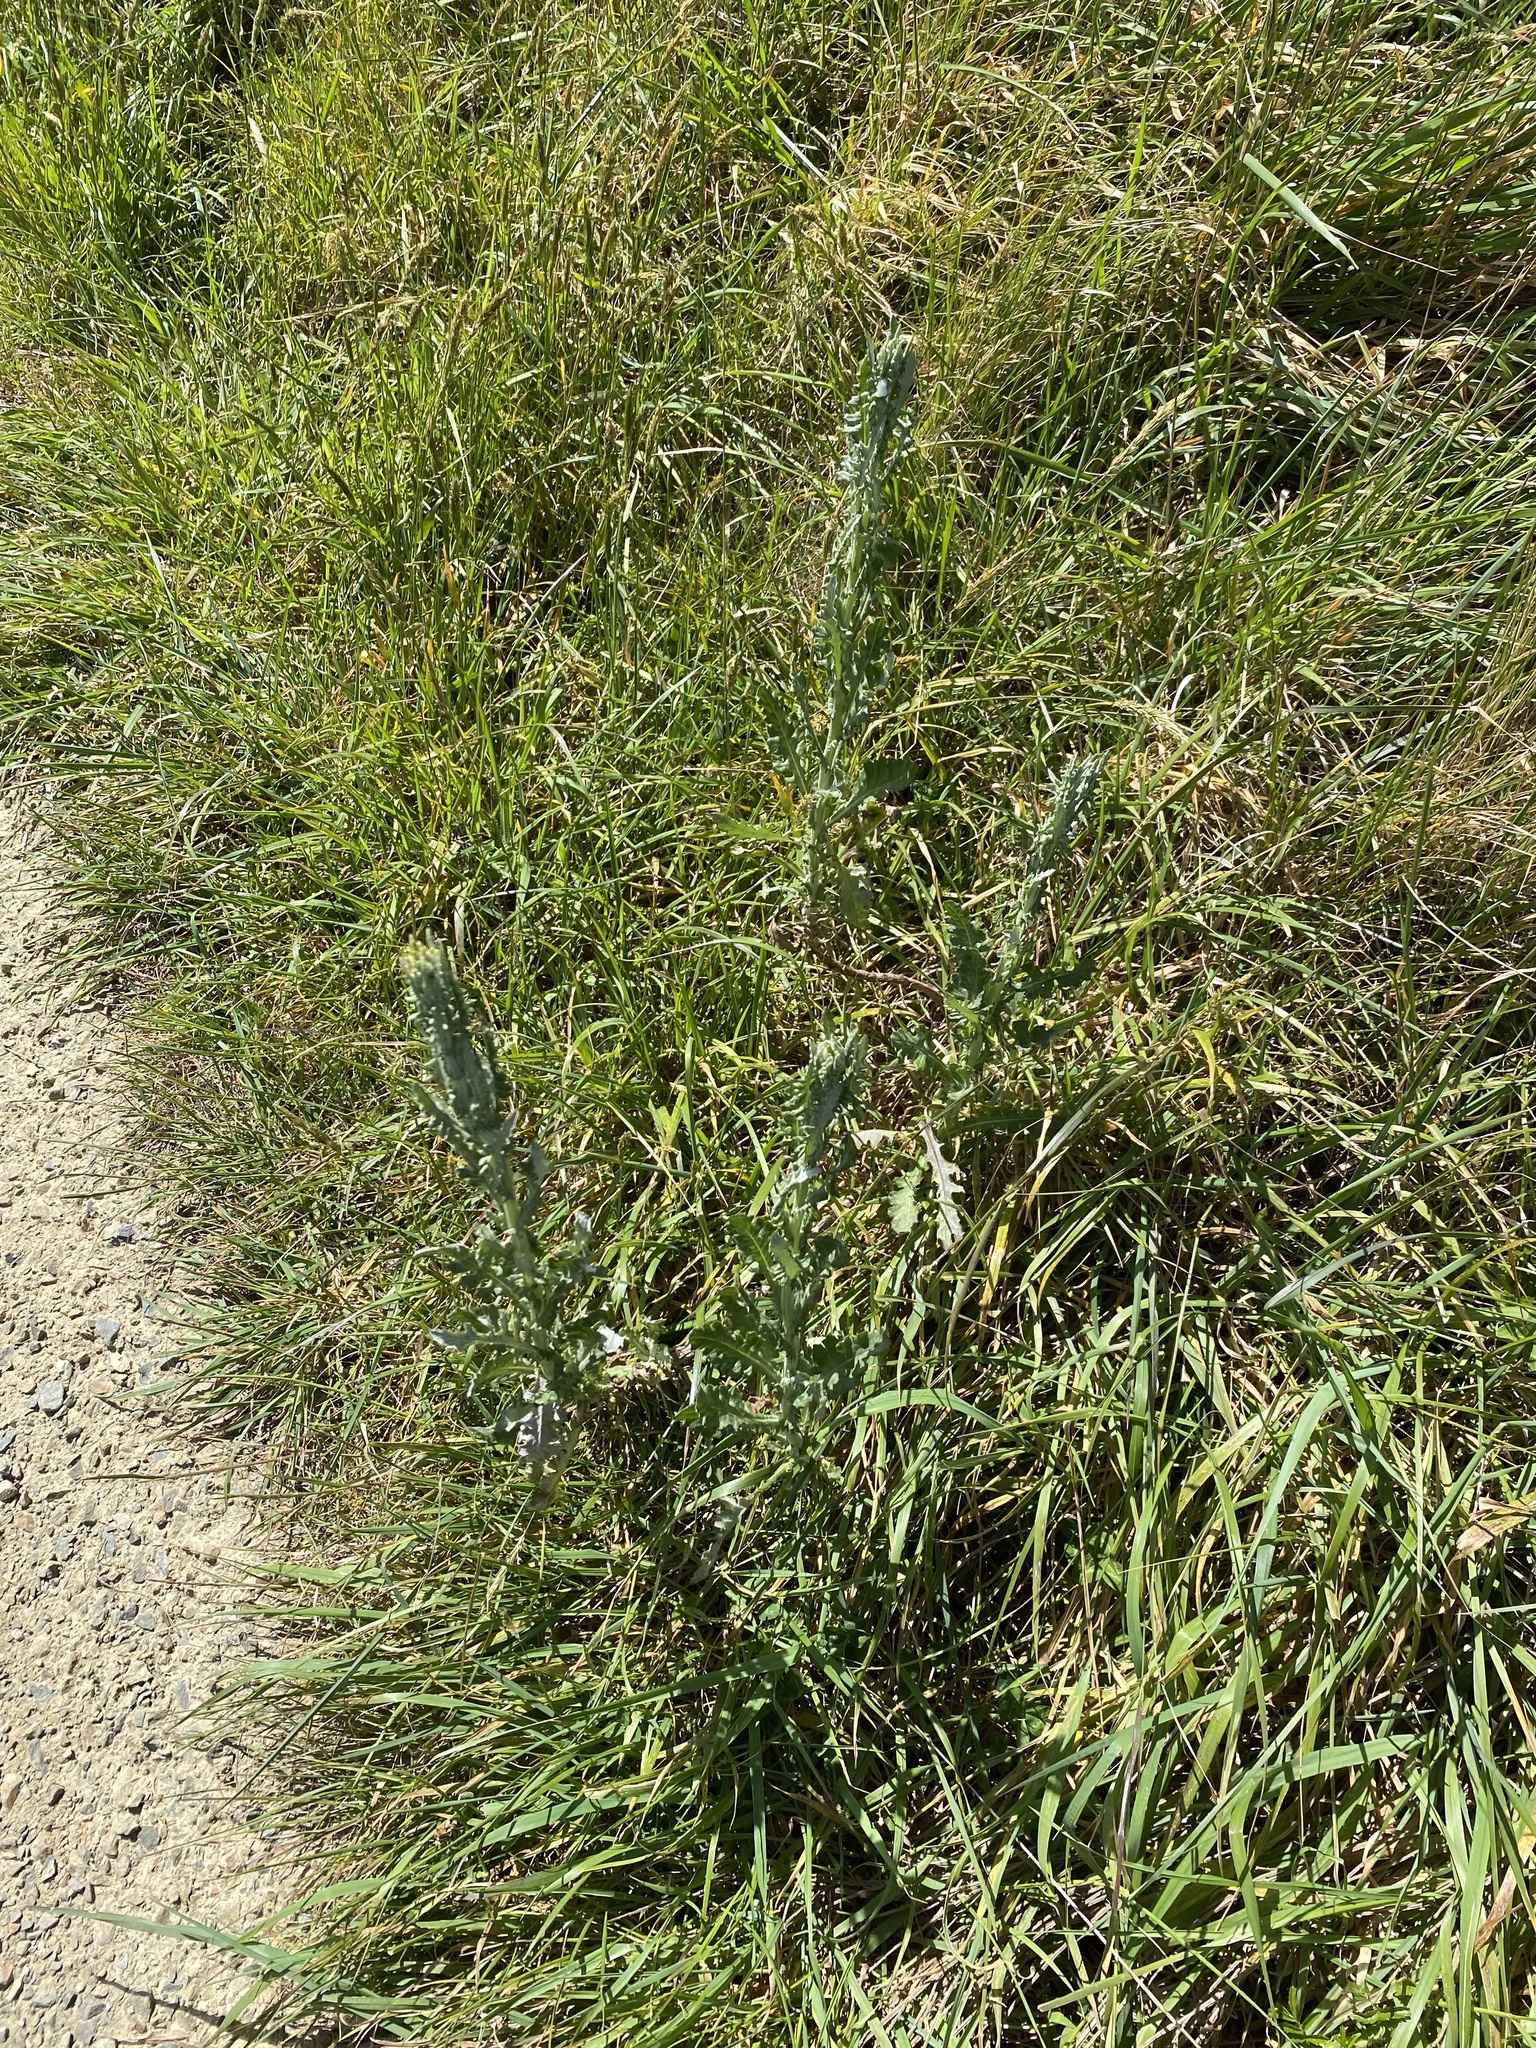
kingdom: Plantae
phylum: Tracheophyta
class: Magnoliopsida
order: Asterales
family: Asteraceae
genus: Senecio
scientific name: Senecio glomeratus
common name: Cutleaf burnweed
